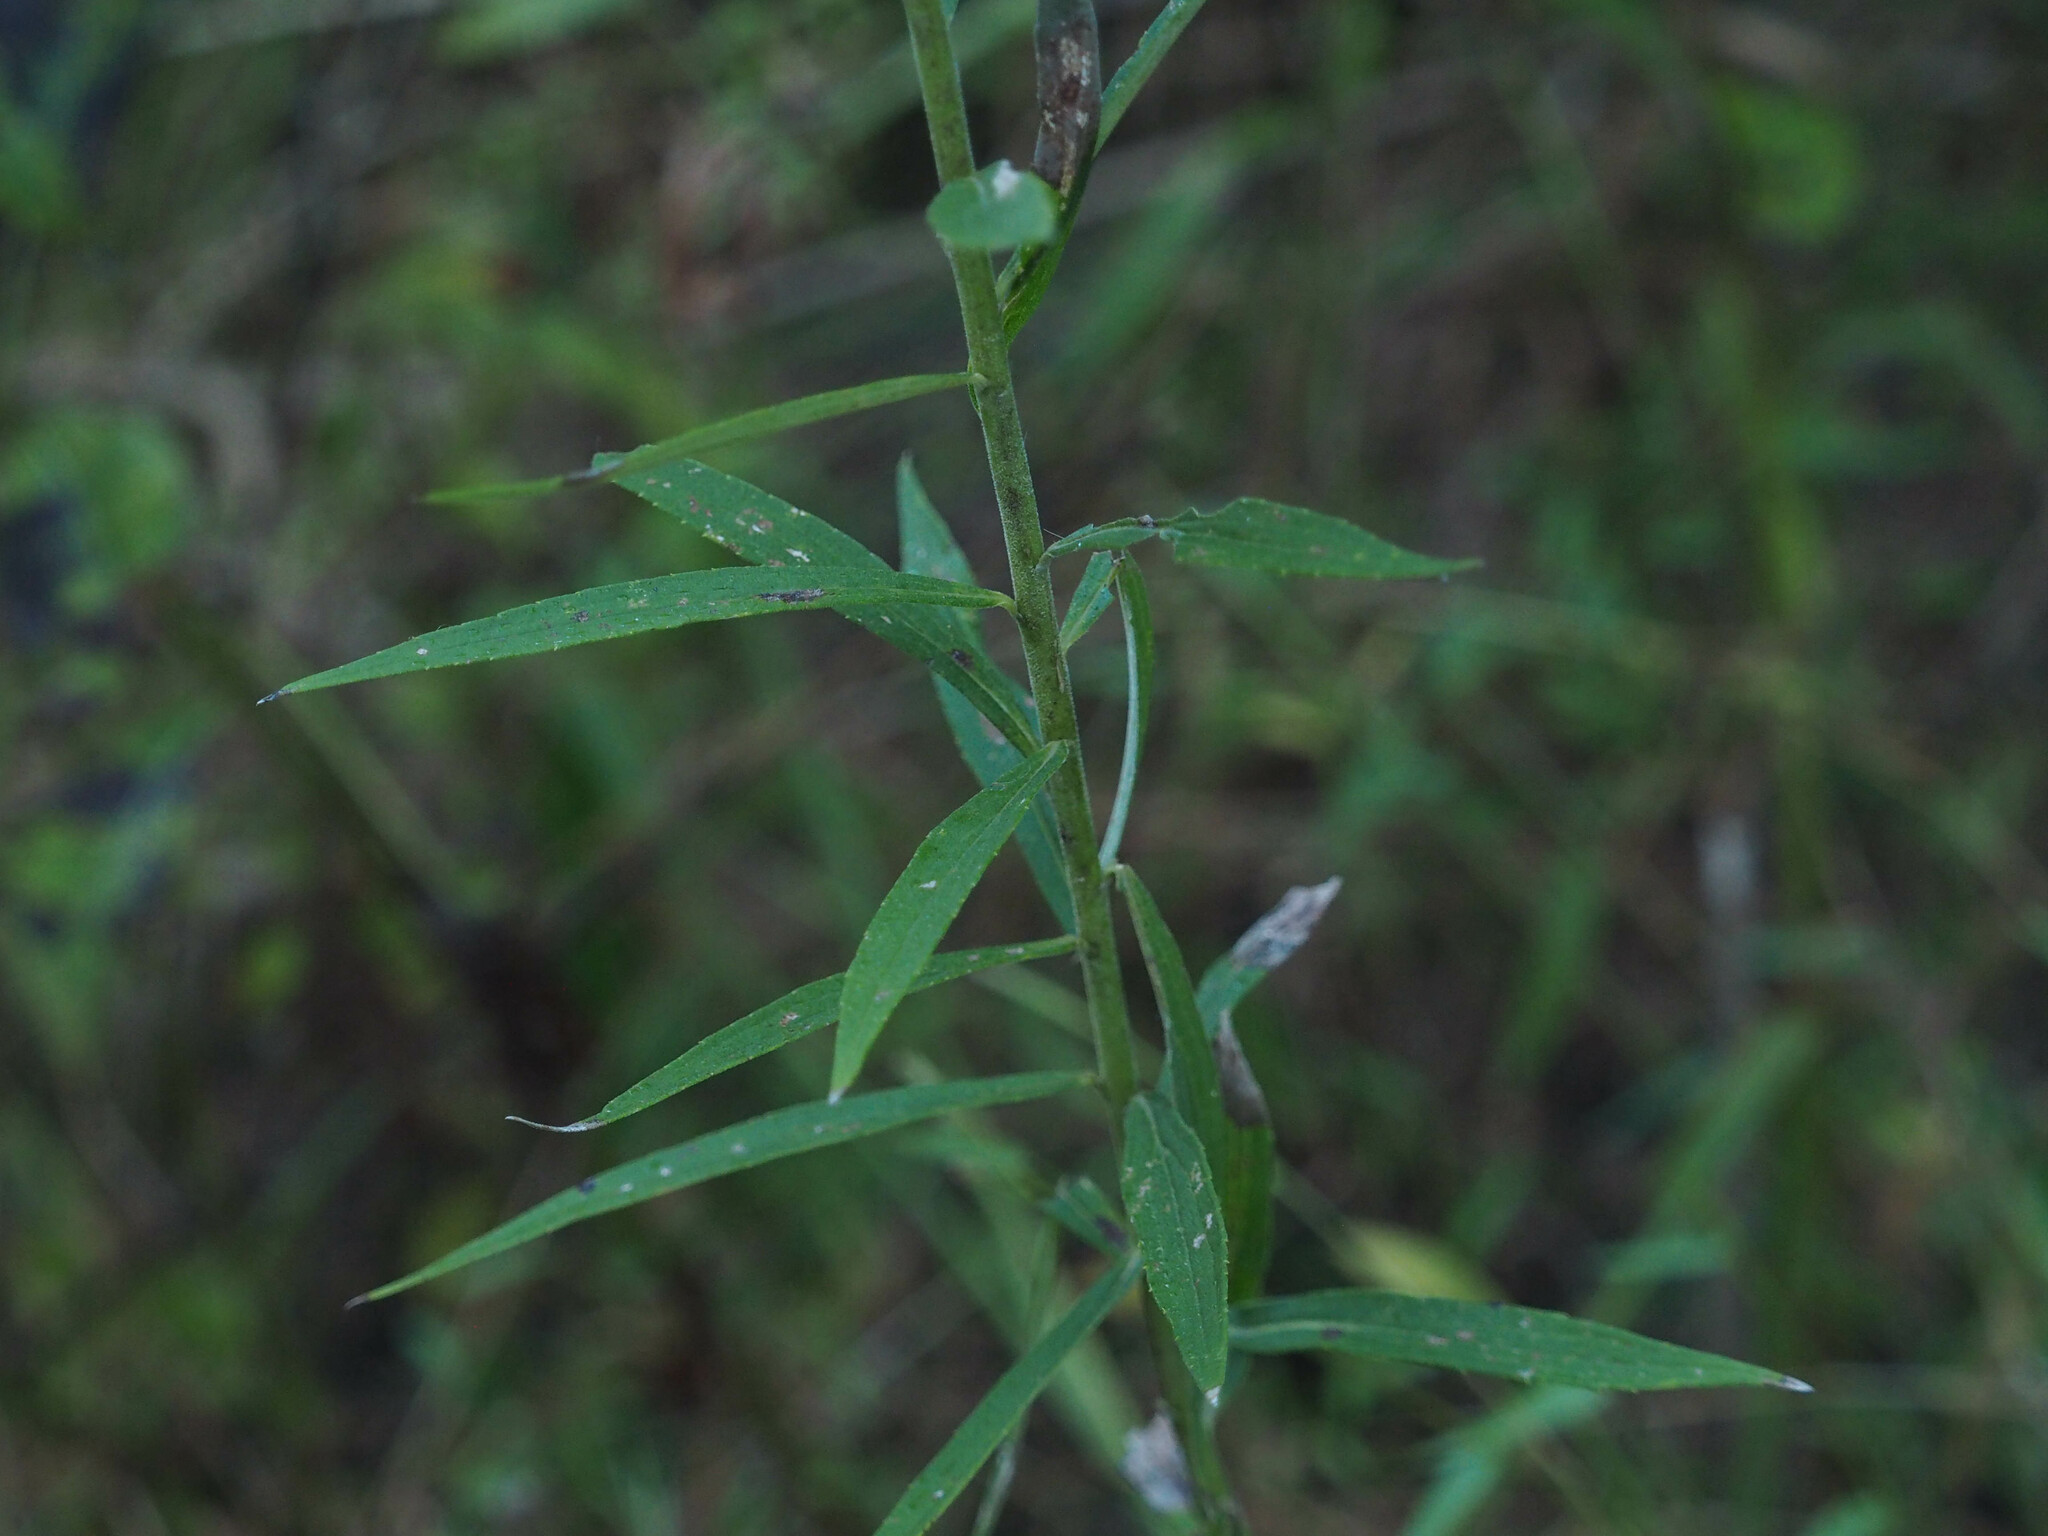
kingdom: Plantae
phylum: Tracheophyta
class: Magnoliopsida
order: Asterales
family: Asteraceae
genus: Solidago
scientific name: Solidago altissima
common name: Late goldenrod
